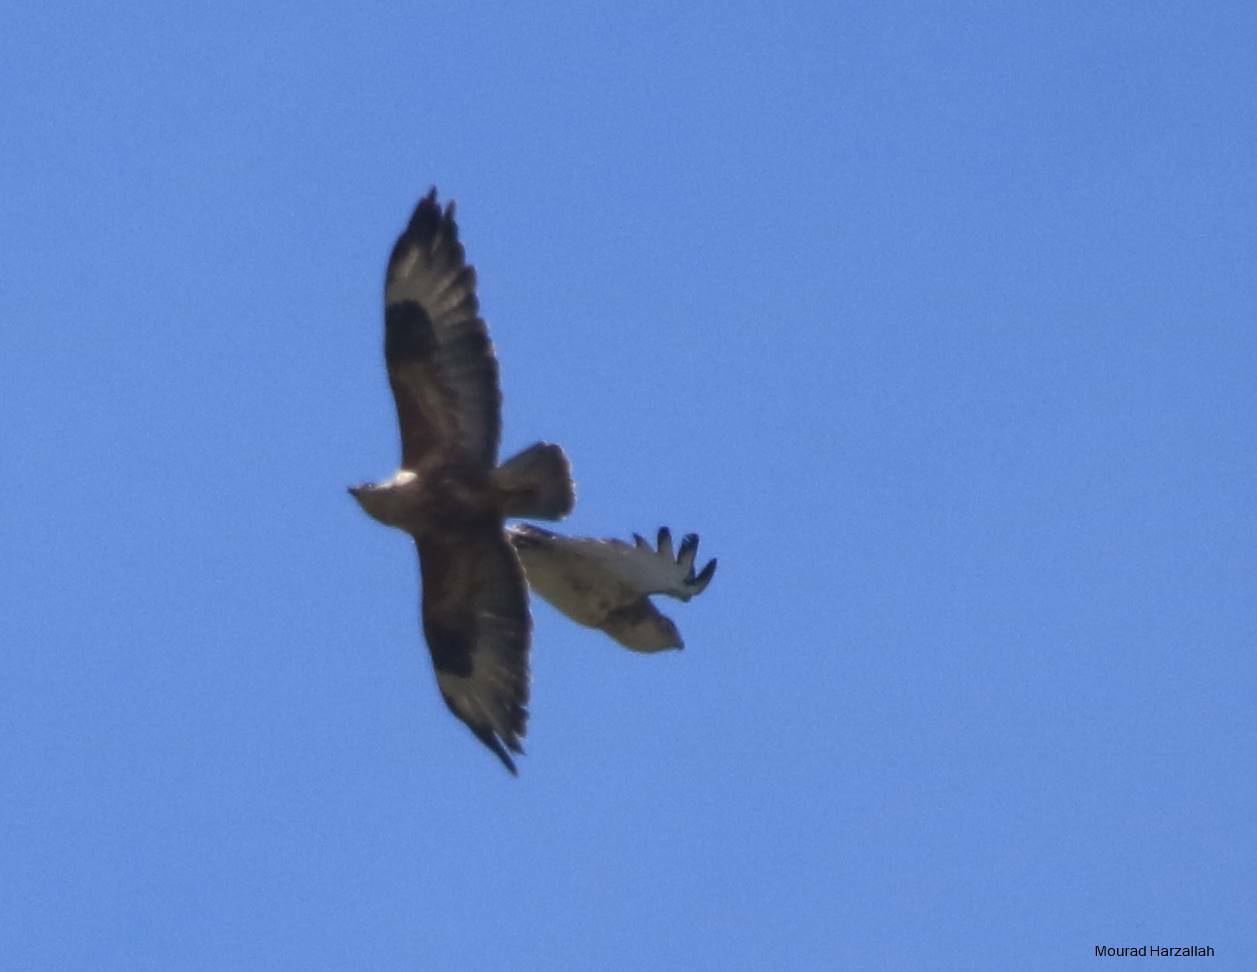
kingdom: Animalia
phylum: Chordata
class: Aves
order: Accipitriformes
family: Accipitridae
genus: Buteo
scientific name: Buteo rufinus
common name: Long-legged buzzard
